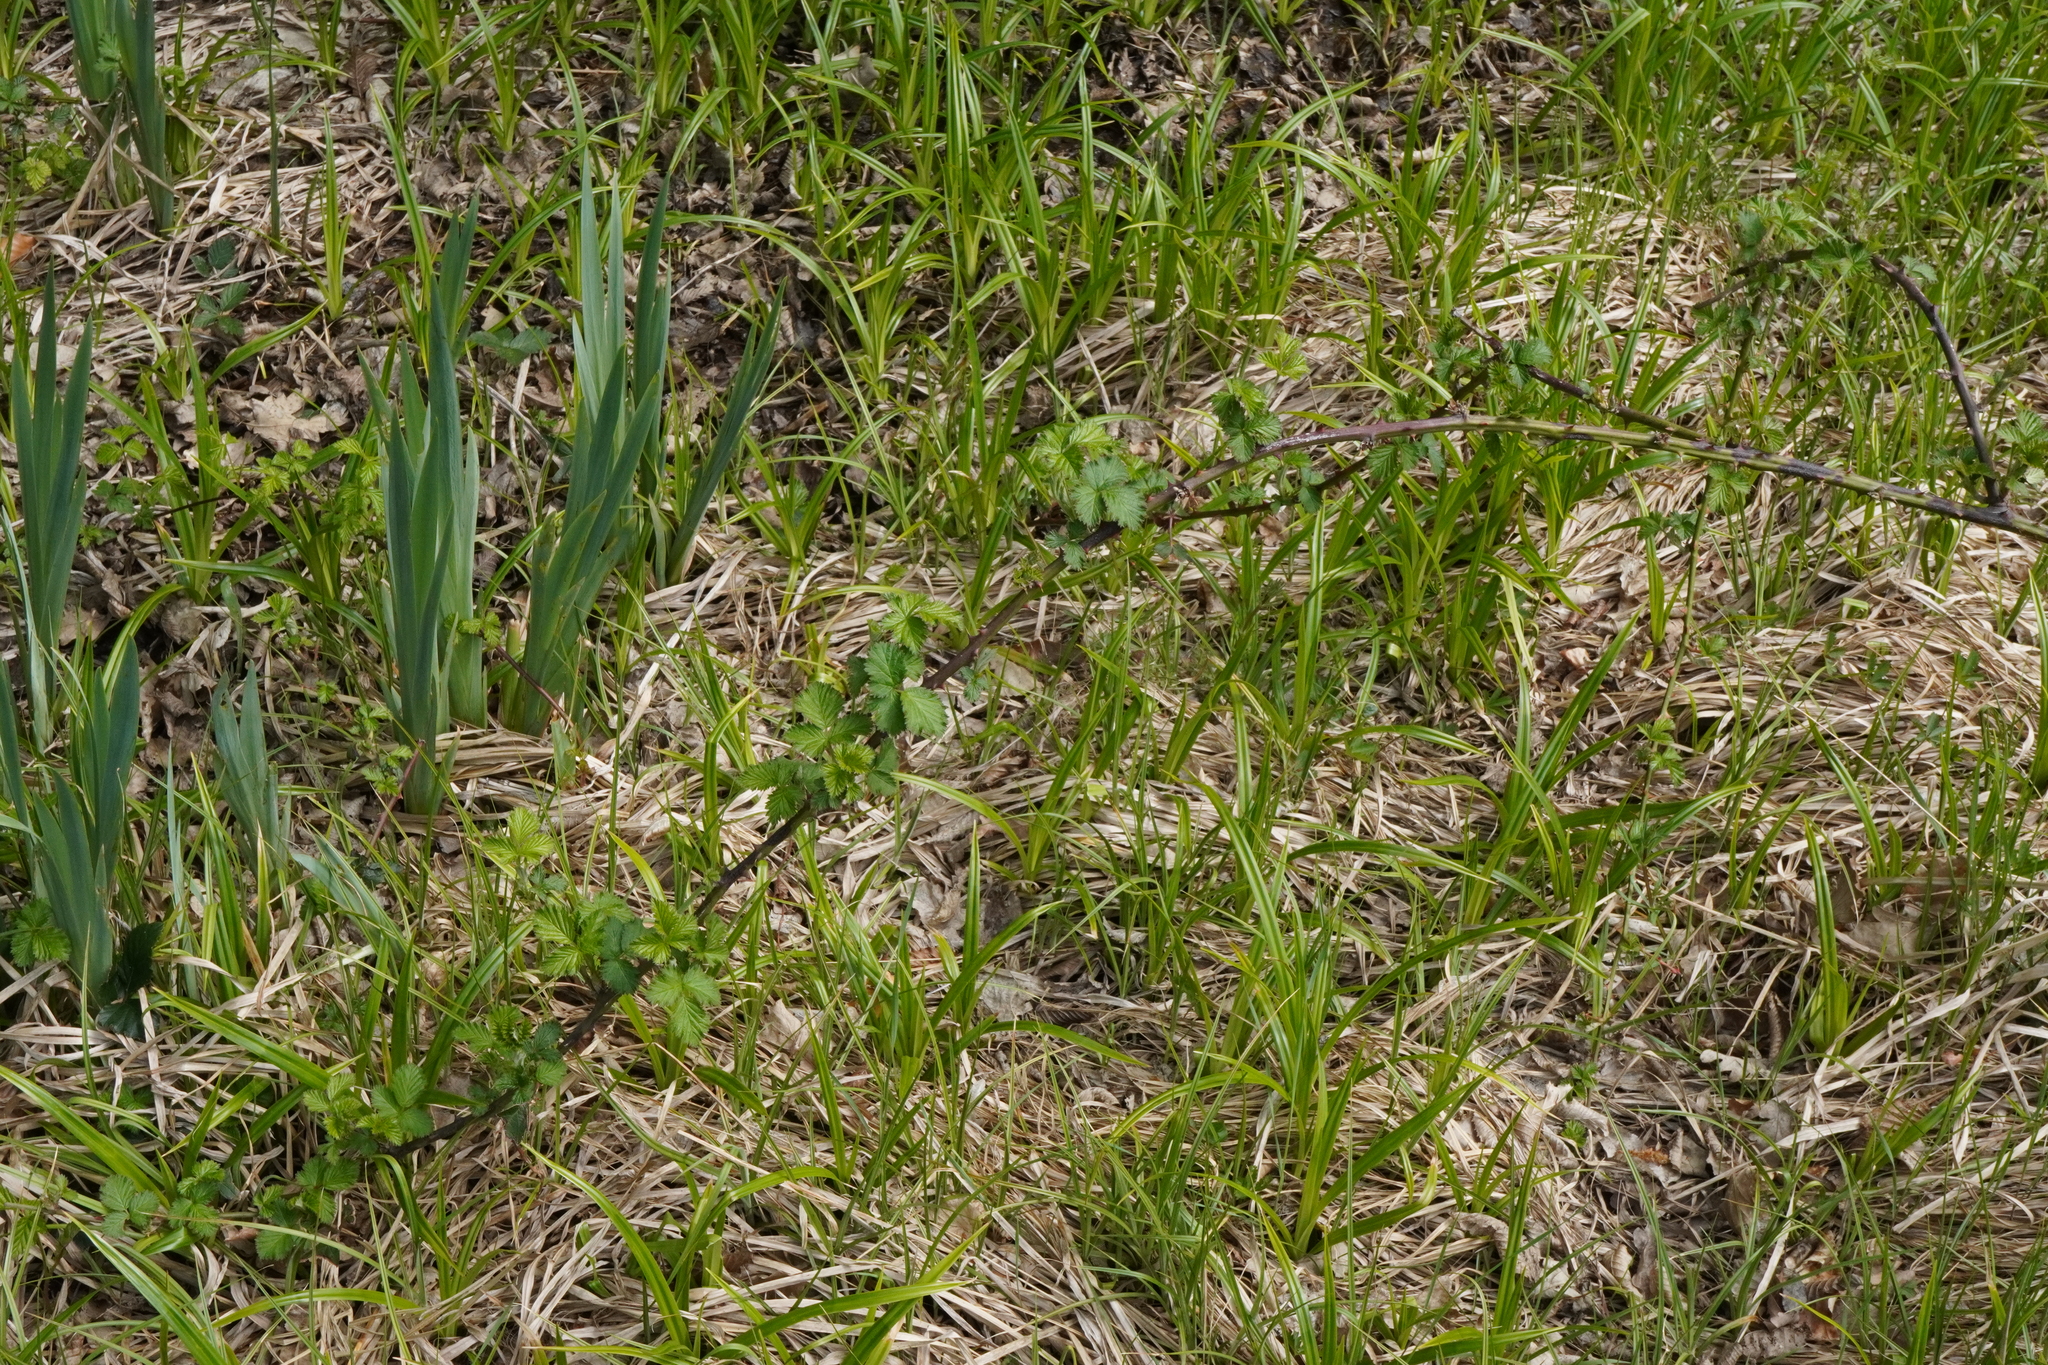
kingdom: Plantae
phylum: Tracheophyta
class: Magnoliopsida
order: Rosales
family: Rosaceae
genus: Rubus
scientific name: Rubus
